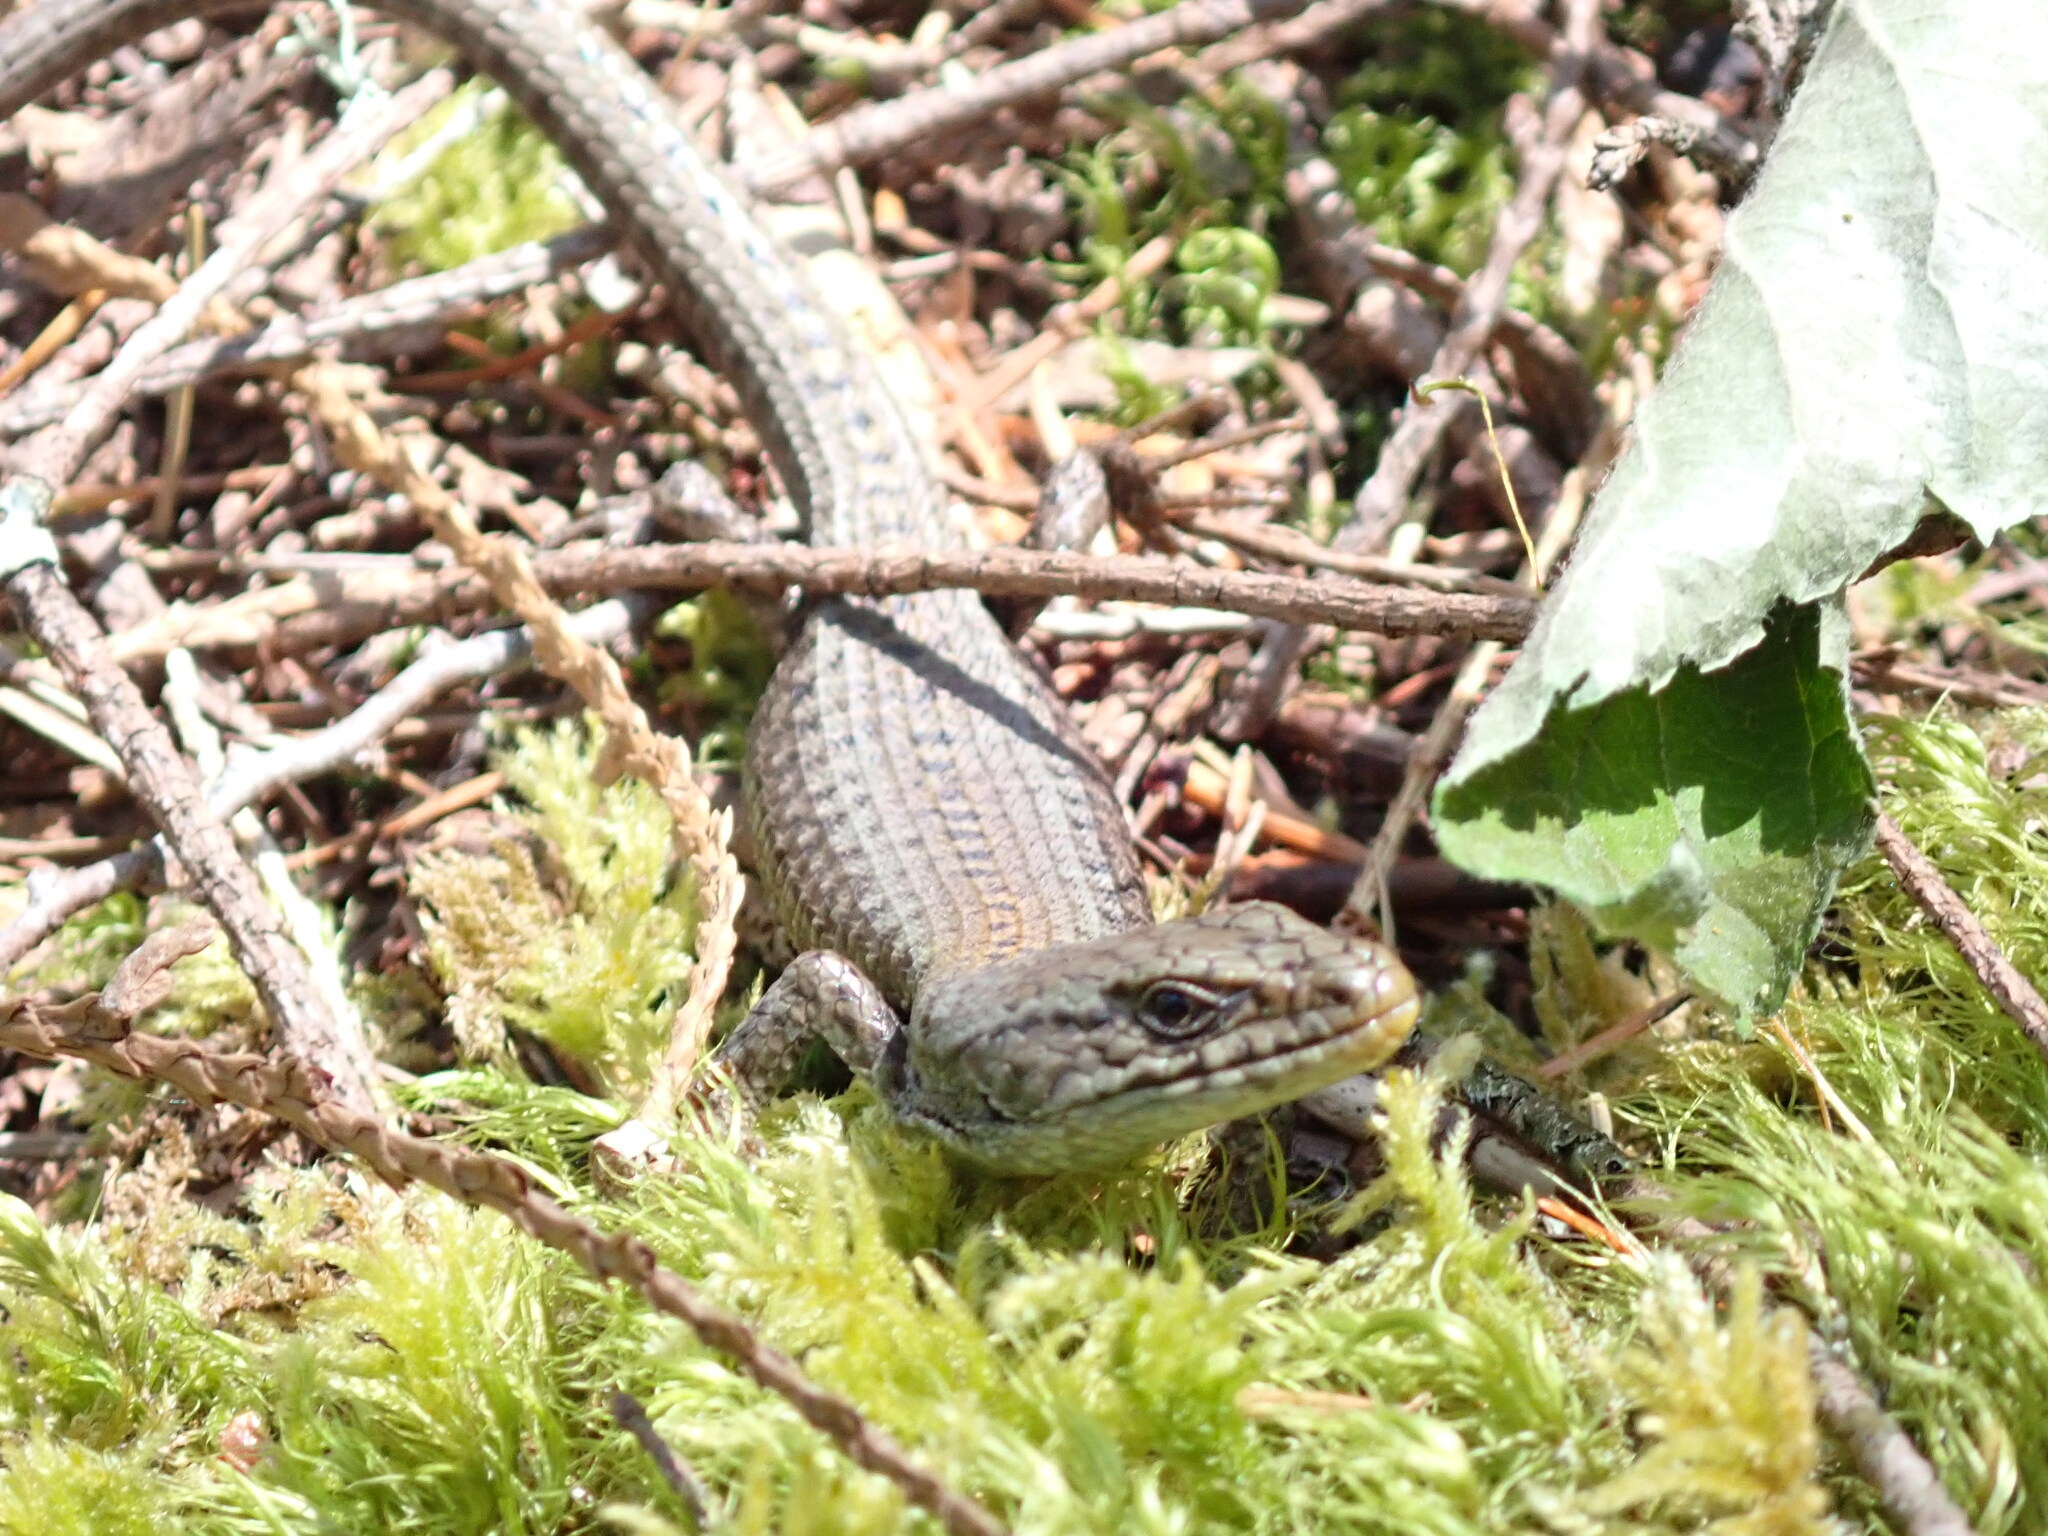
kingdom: Animalia
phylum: Chordata
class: Squamata
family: Anguidae
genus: Elgaria
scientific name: Elgaria coerulea
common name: Northern alligator lizard
